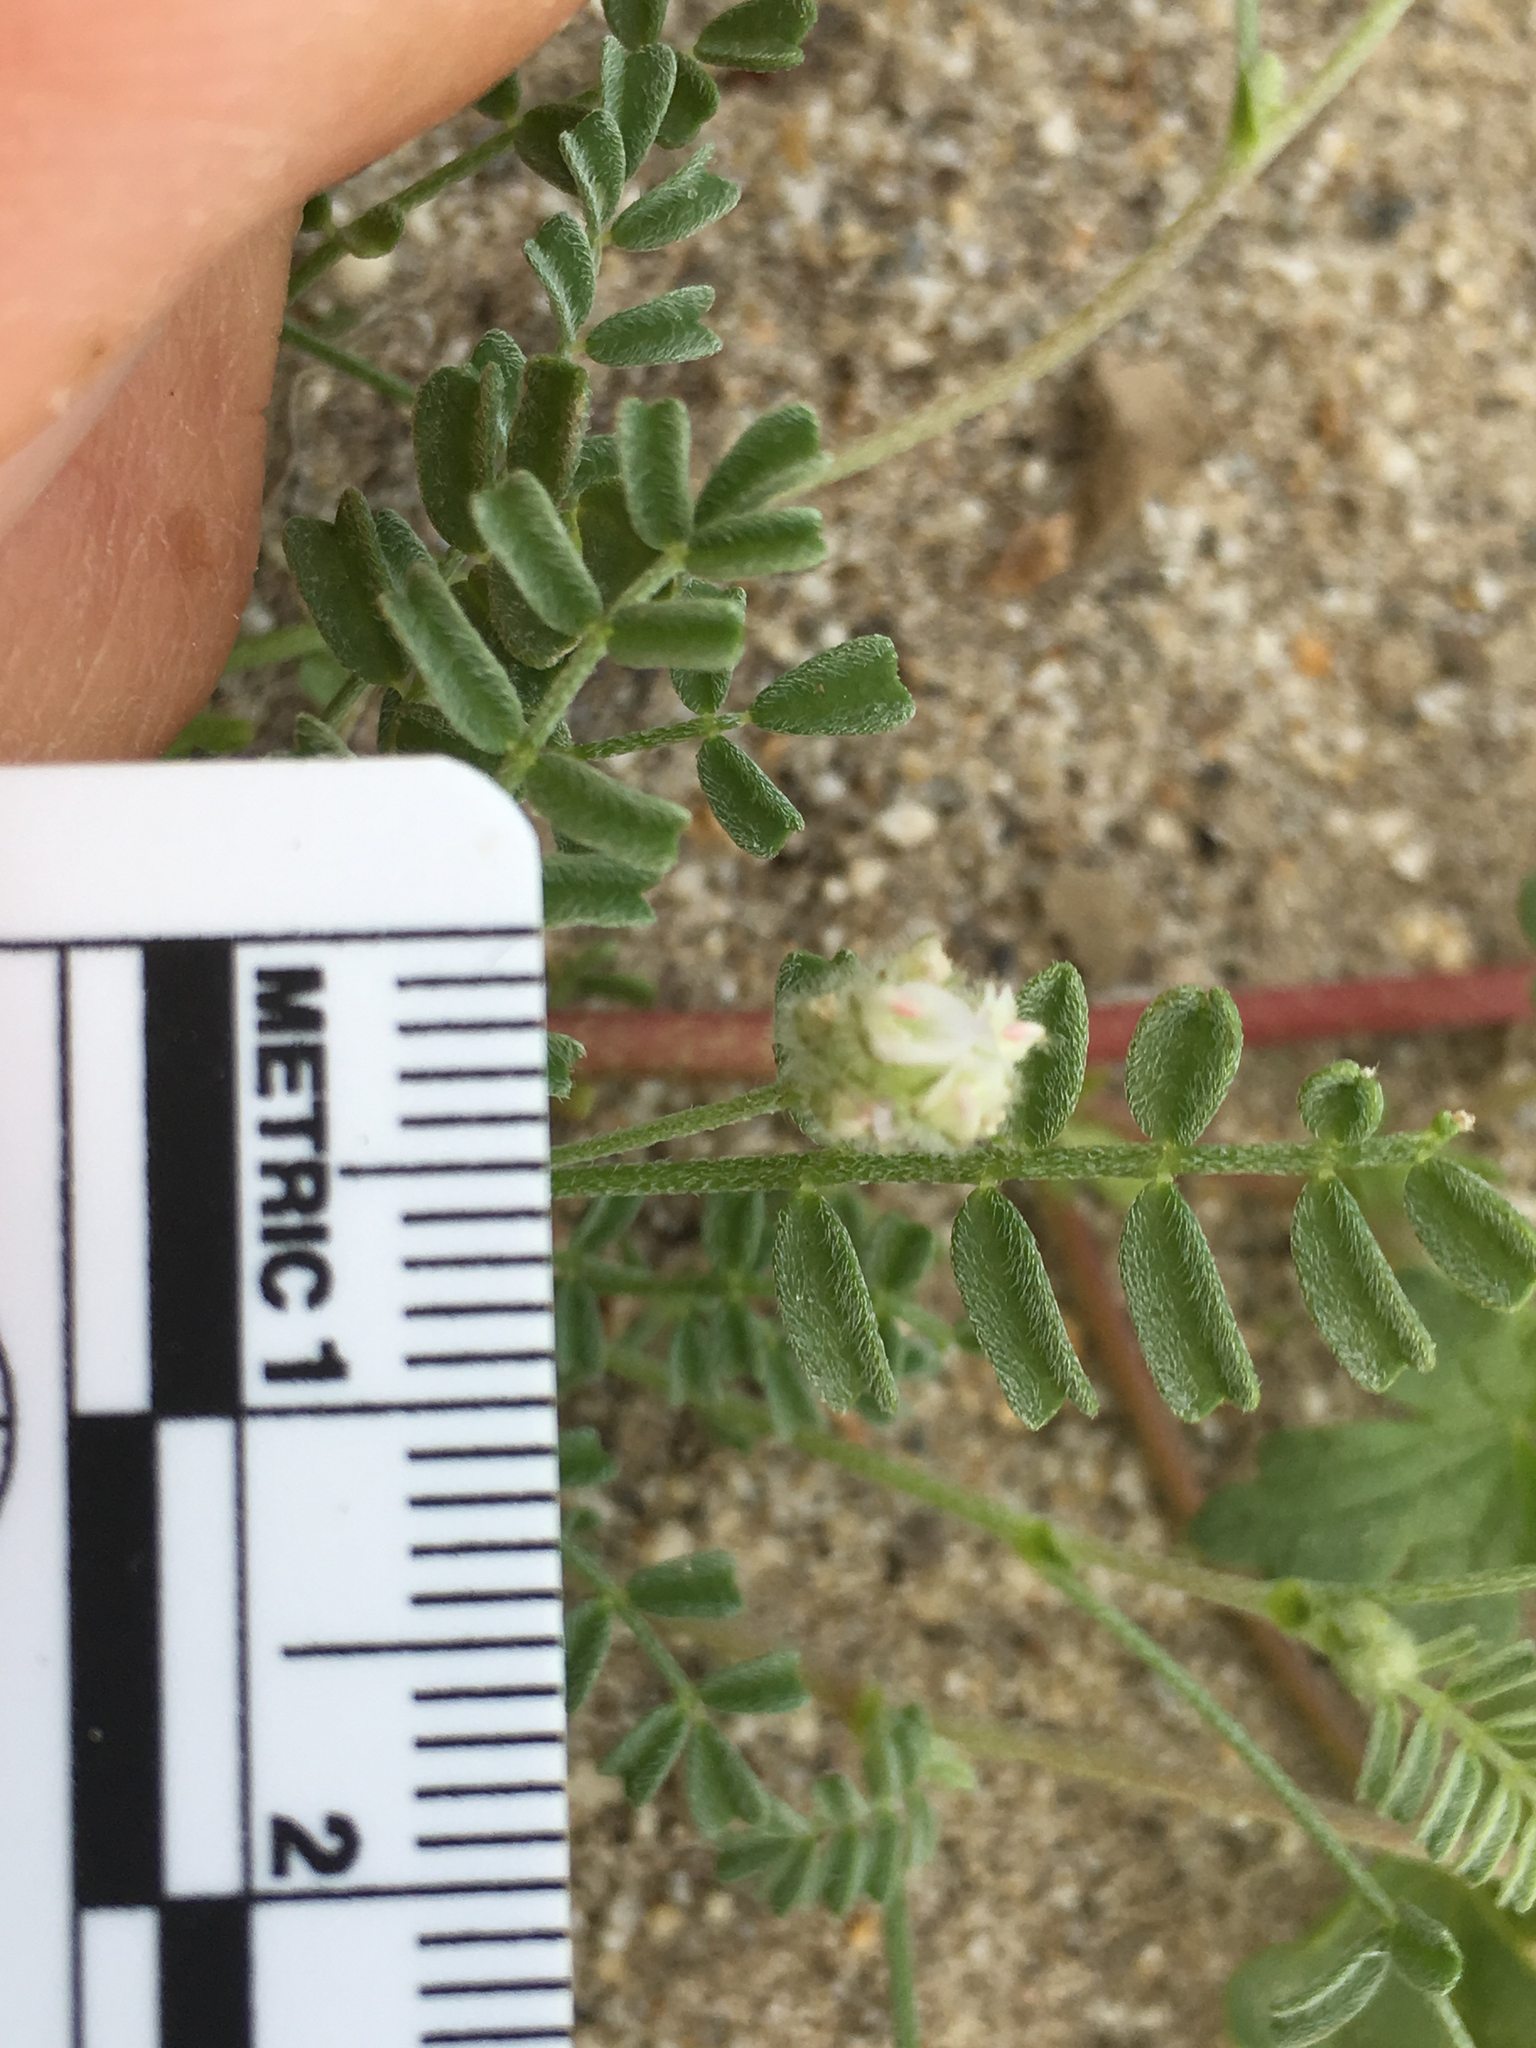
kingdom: Plantae
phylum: Tracheophyta
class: Magnoliopsida
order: Fabales
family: Fabaceae
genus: Astragalus
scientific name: Astragalus didymocarpus
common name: Dwarf white milkvetch
